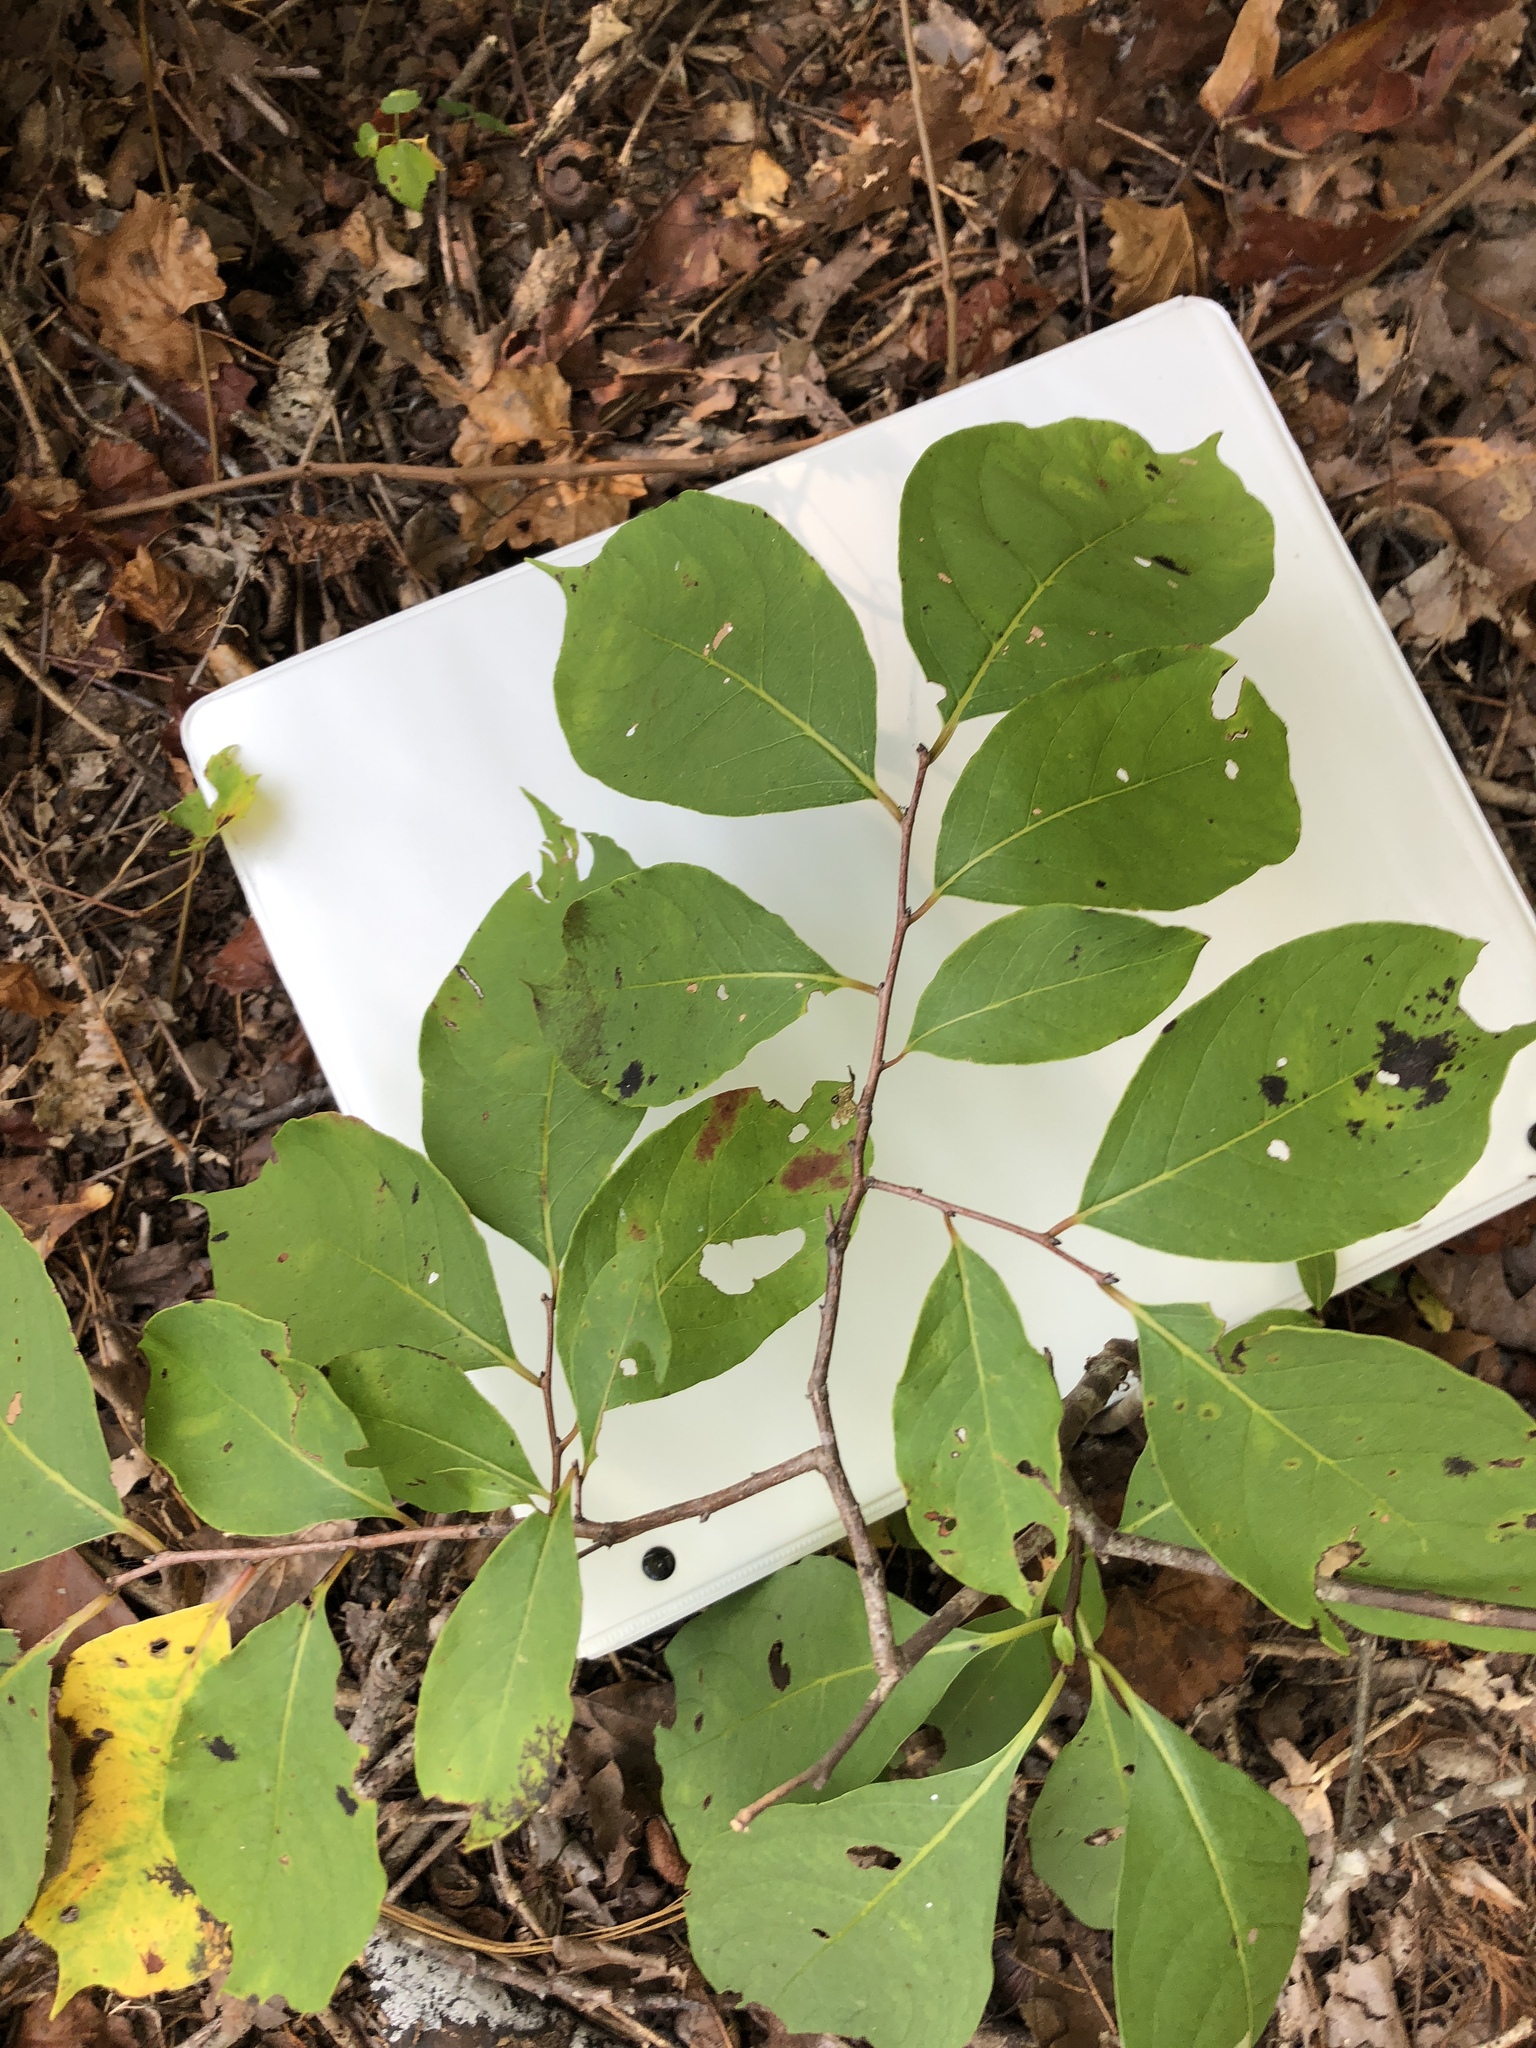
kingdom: Plantae
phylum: Tracheophyta
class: Magnoliopsida
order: Ericales
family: Ebenaceae
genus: Diospyros
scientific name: Diospyros virginiana
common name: Persimmon
